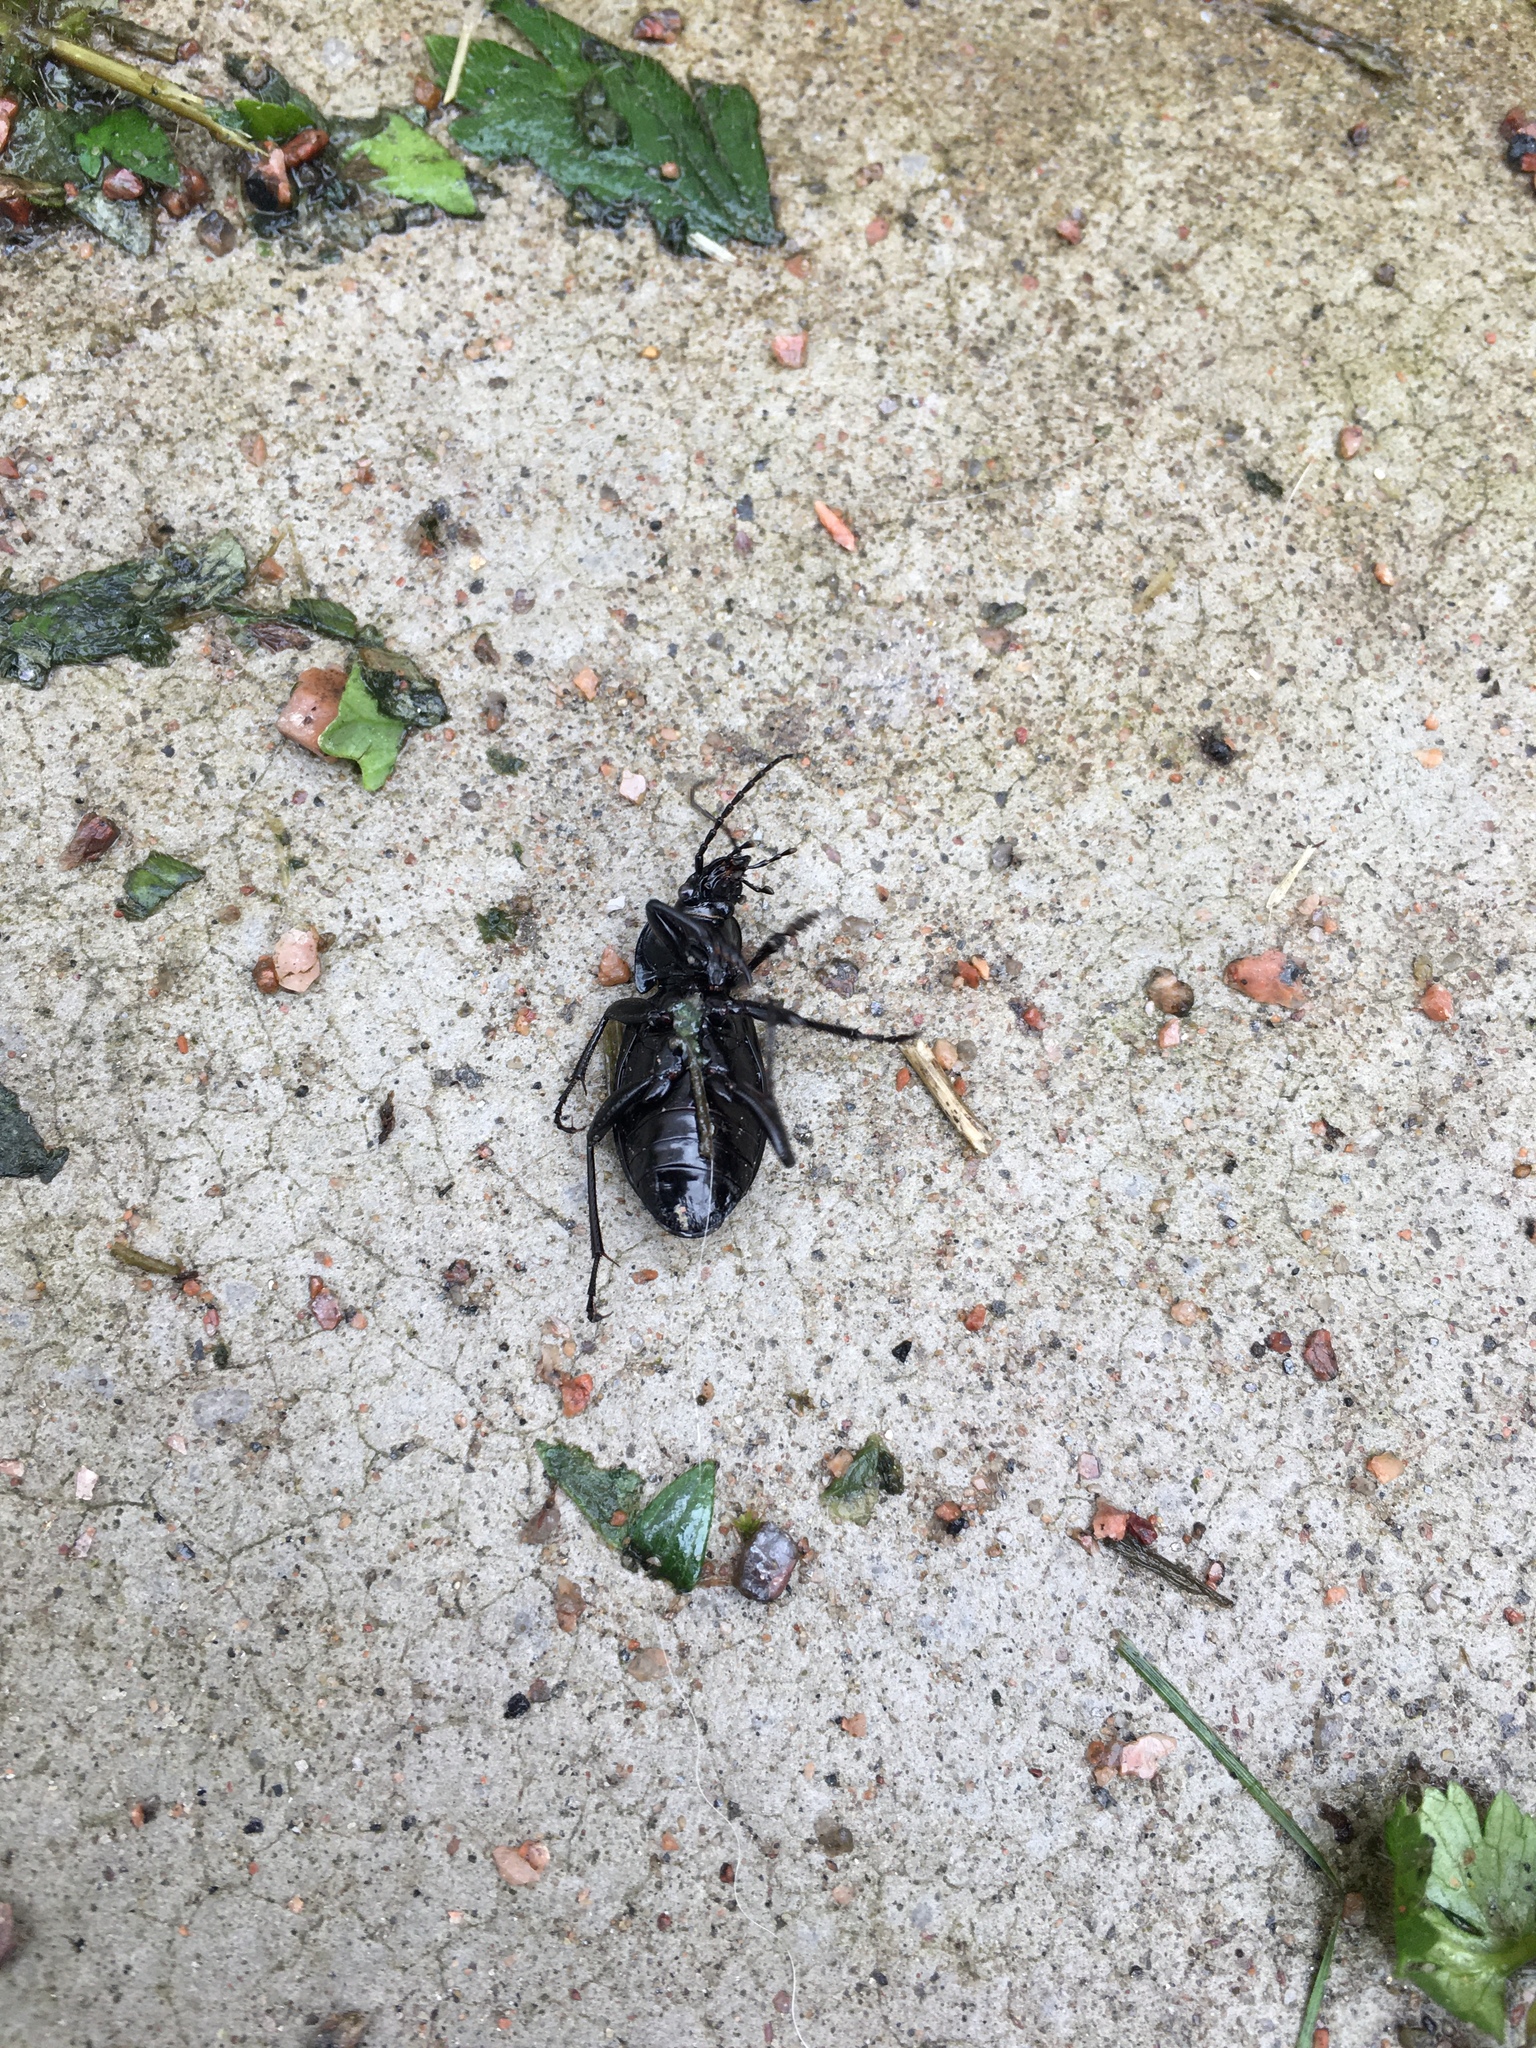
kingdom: Animalia
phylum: Arthropoda
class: Insecta
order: Coleoptera
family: Carabidae
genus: Carabus
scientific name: Carabus nemoralis
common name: European ground beetle
